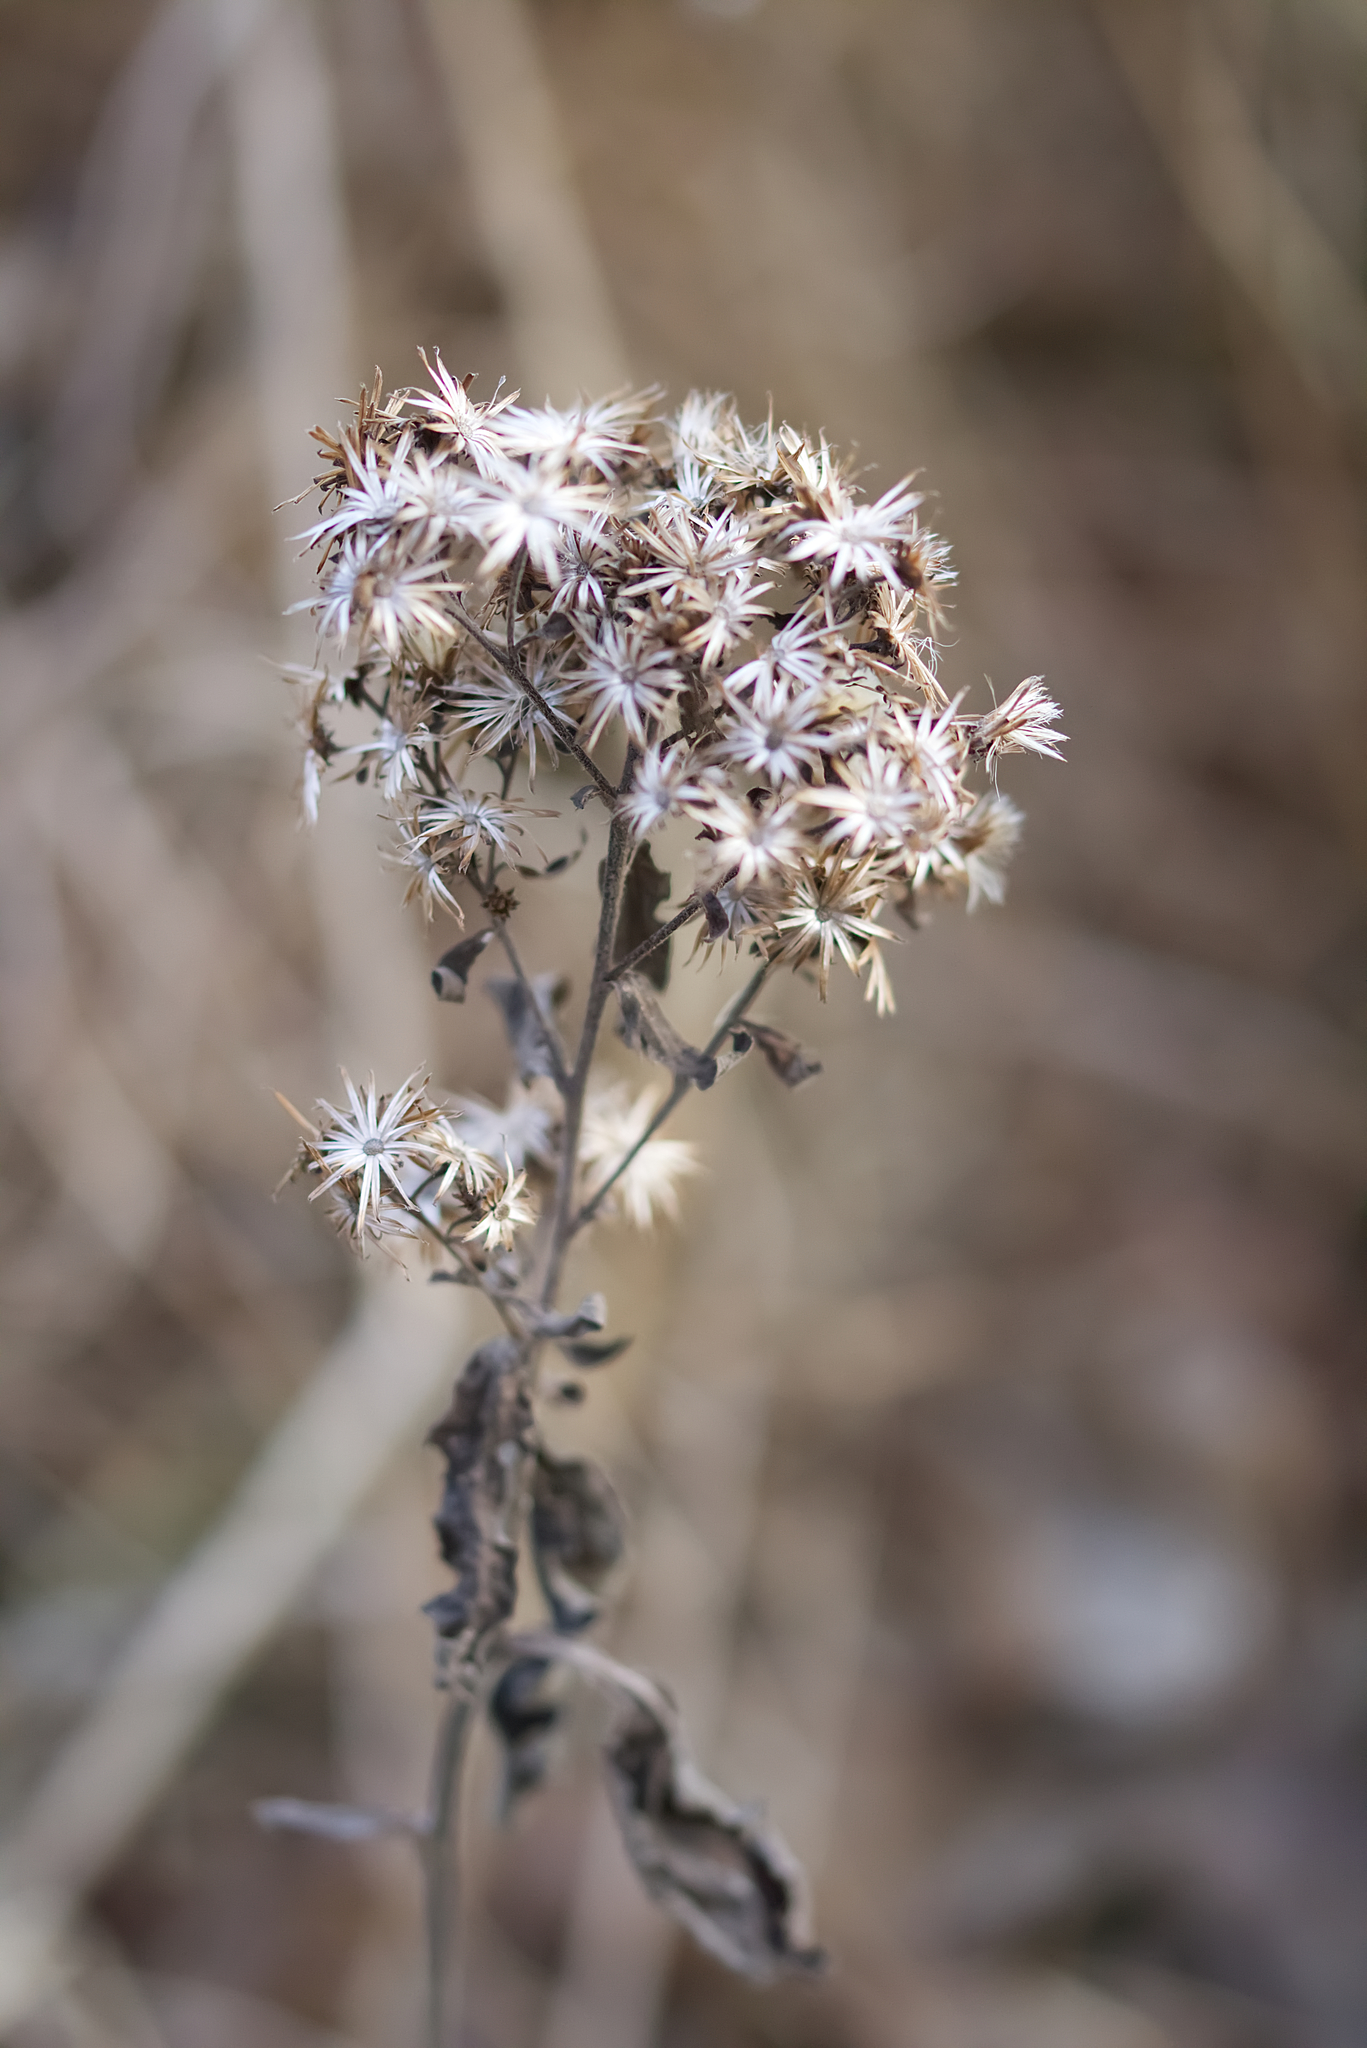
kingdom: Plantae
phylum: Tracheophyta
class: Magnoliopsida
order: Asterales
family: Asteraceae
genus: Pentanema
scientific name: Pentanema squarrosum
